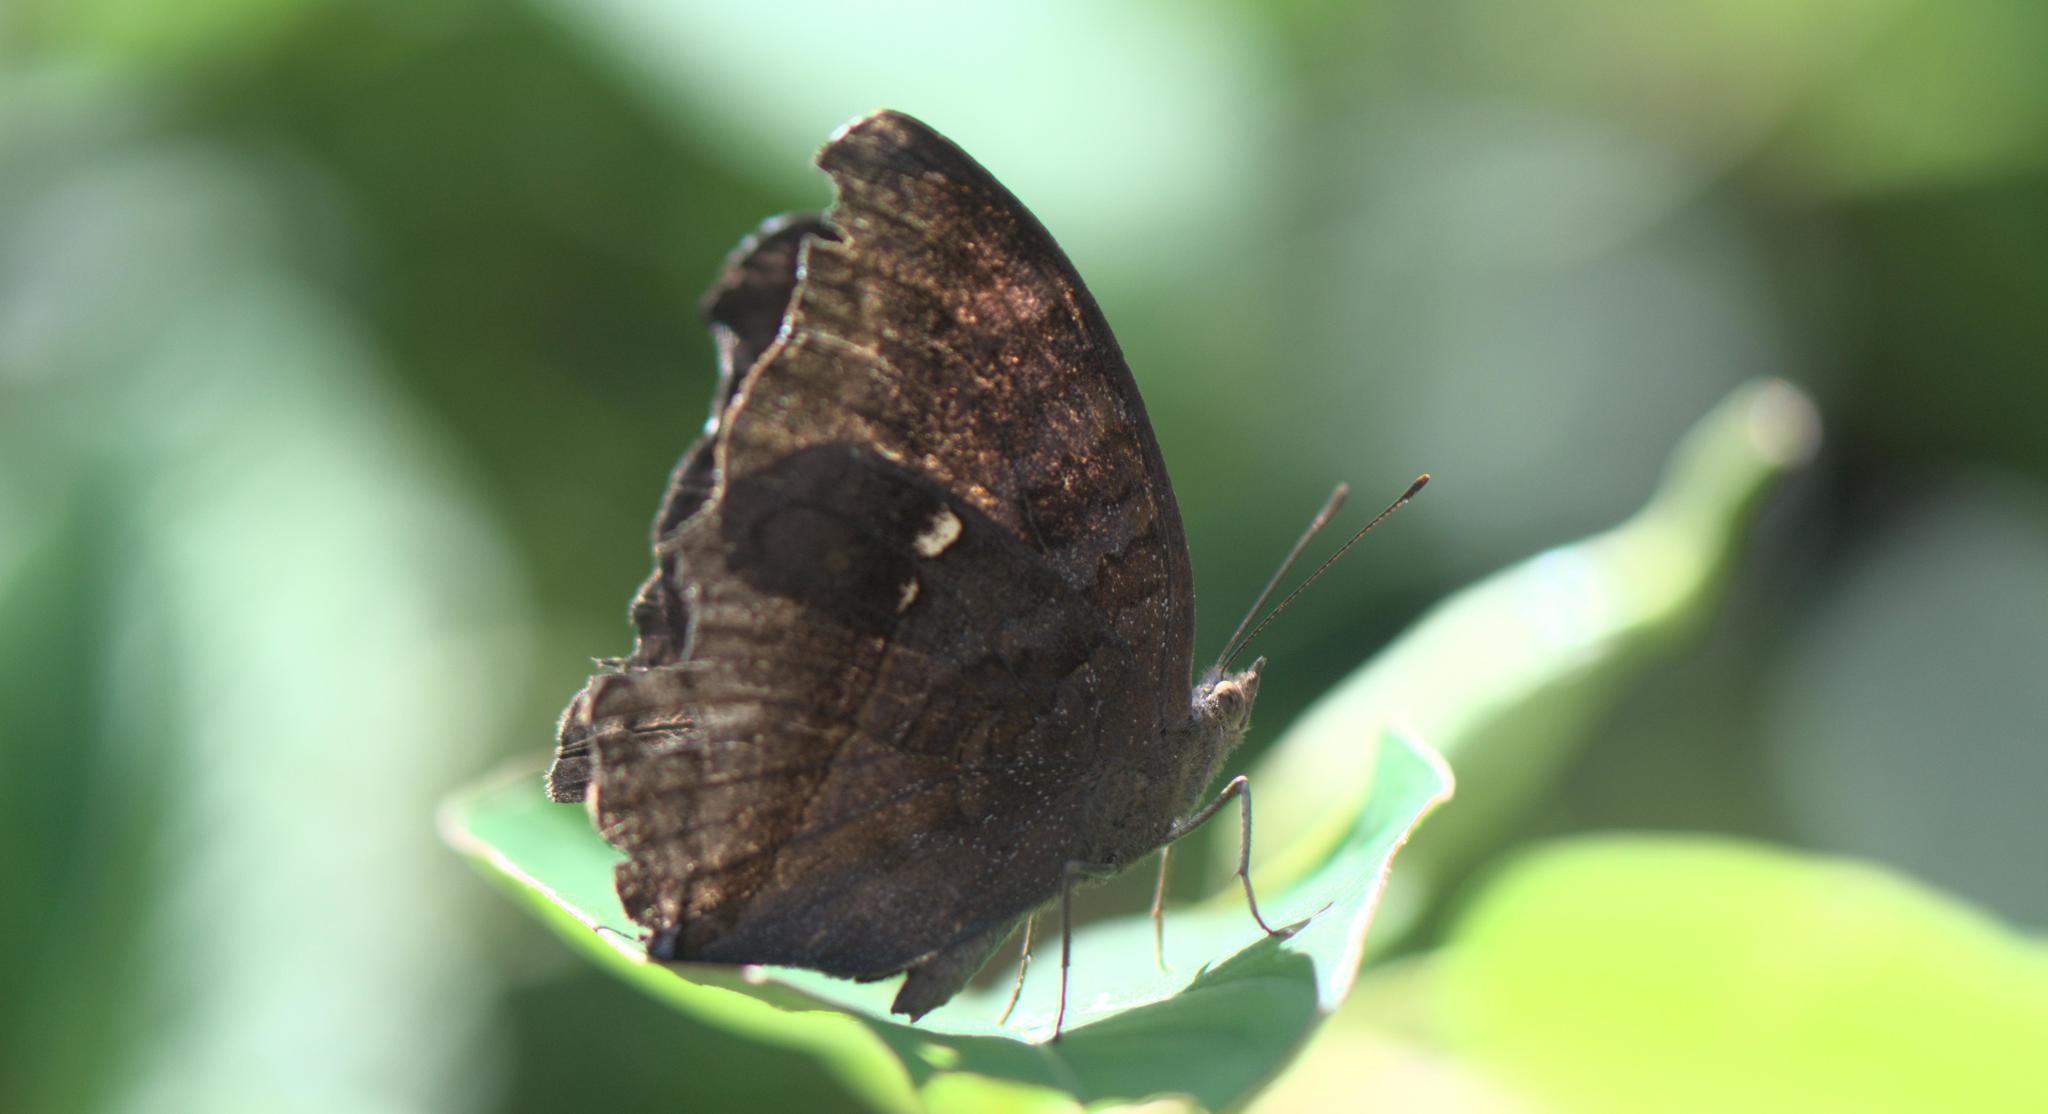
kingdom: Animalia
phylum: Arthropoda
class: Insecta
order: Lepidoptera
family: Nymphalidae
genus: Junonia
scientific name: Junonia iphita
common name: Chocolate pansy
